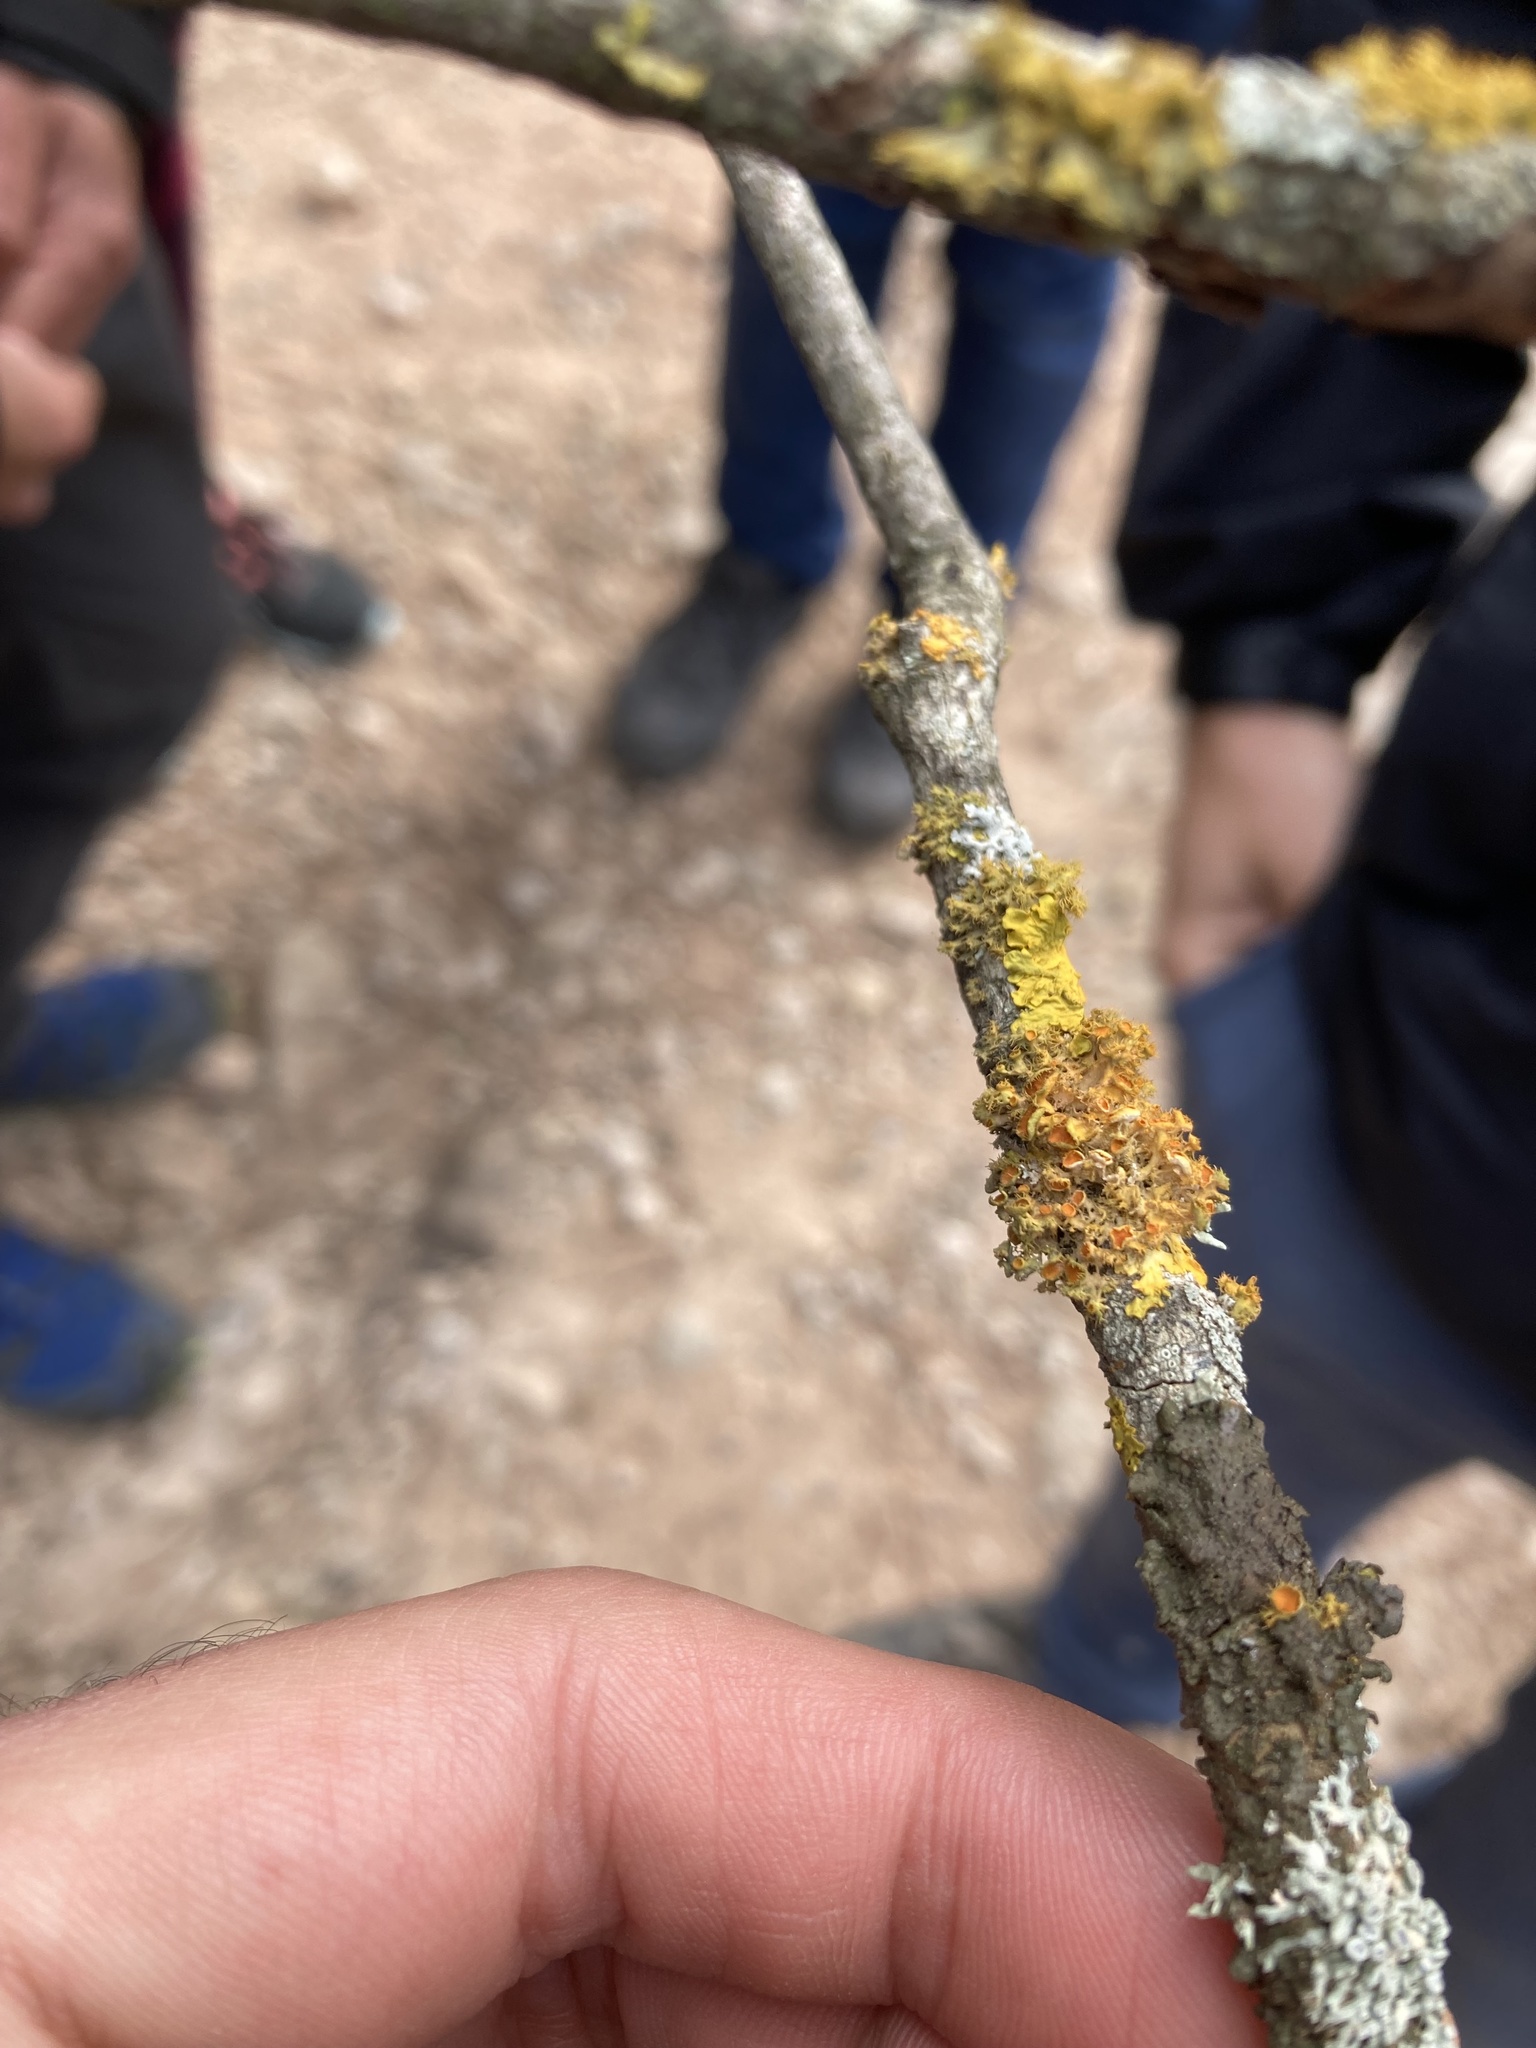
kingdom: Fungi
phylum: Ascomycota
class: Lecanoromycetes
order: Teloschistales
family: Teloschistaceae
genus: Niorma
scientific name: Niorma chrysophthalma
